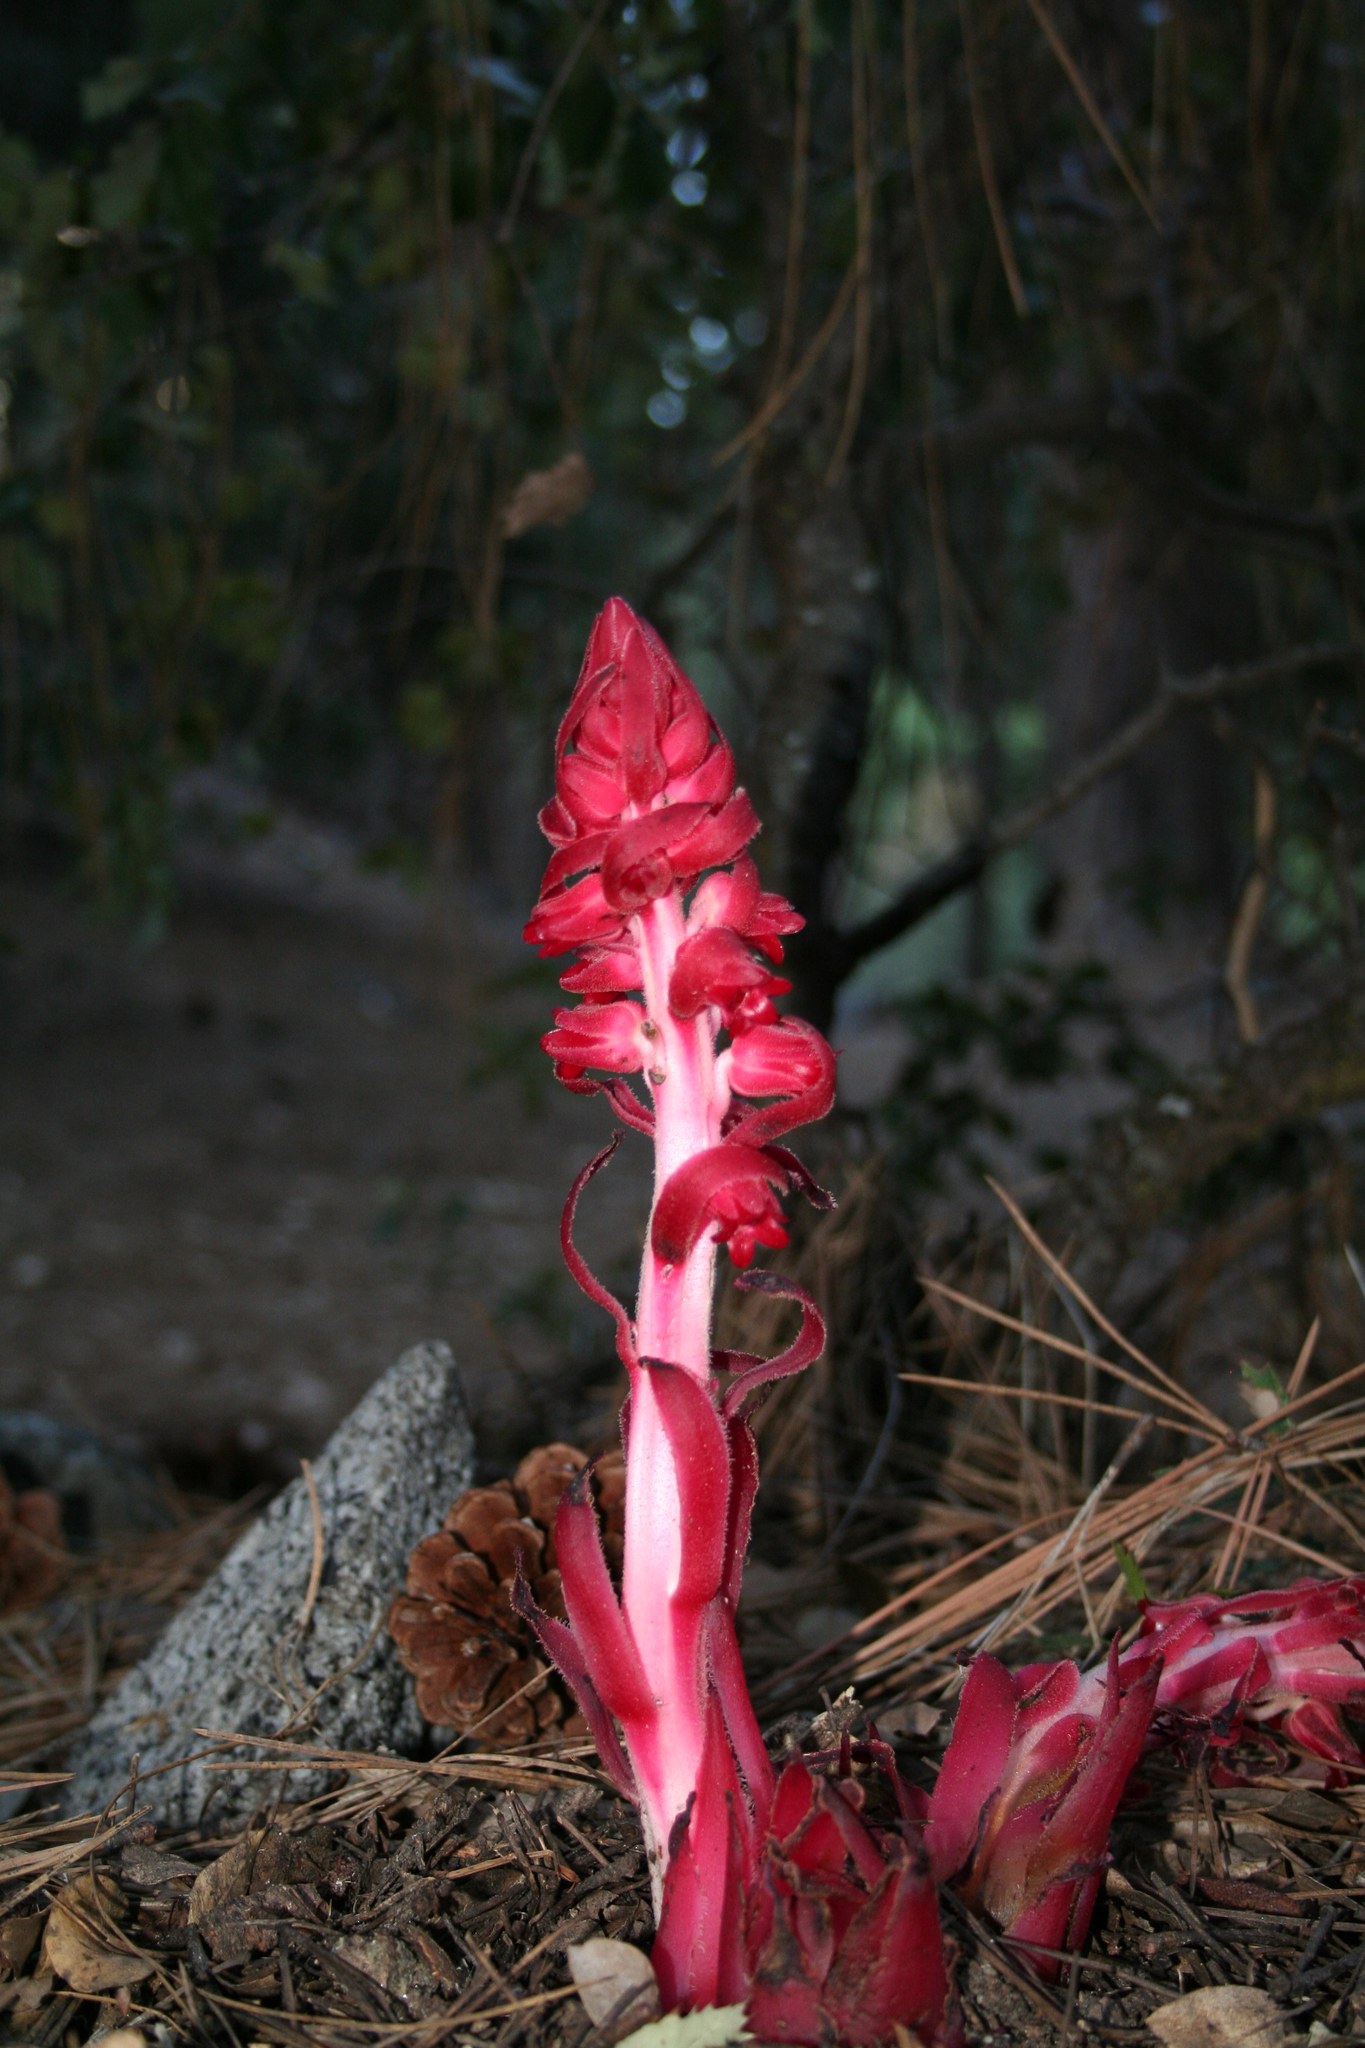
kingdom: Plantae
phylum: Tracheophyta
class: Magnoliopsida
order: Ericales
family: Ericaceae
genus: Sarcodes
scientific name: Sarcodes sanguinea
